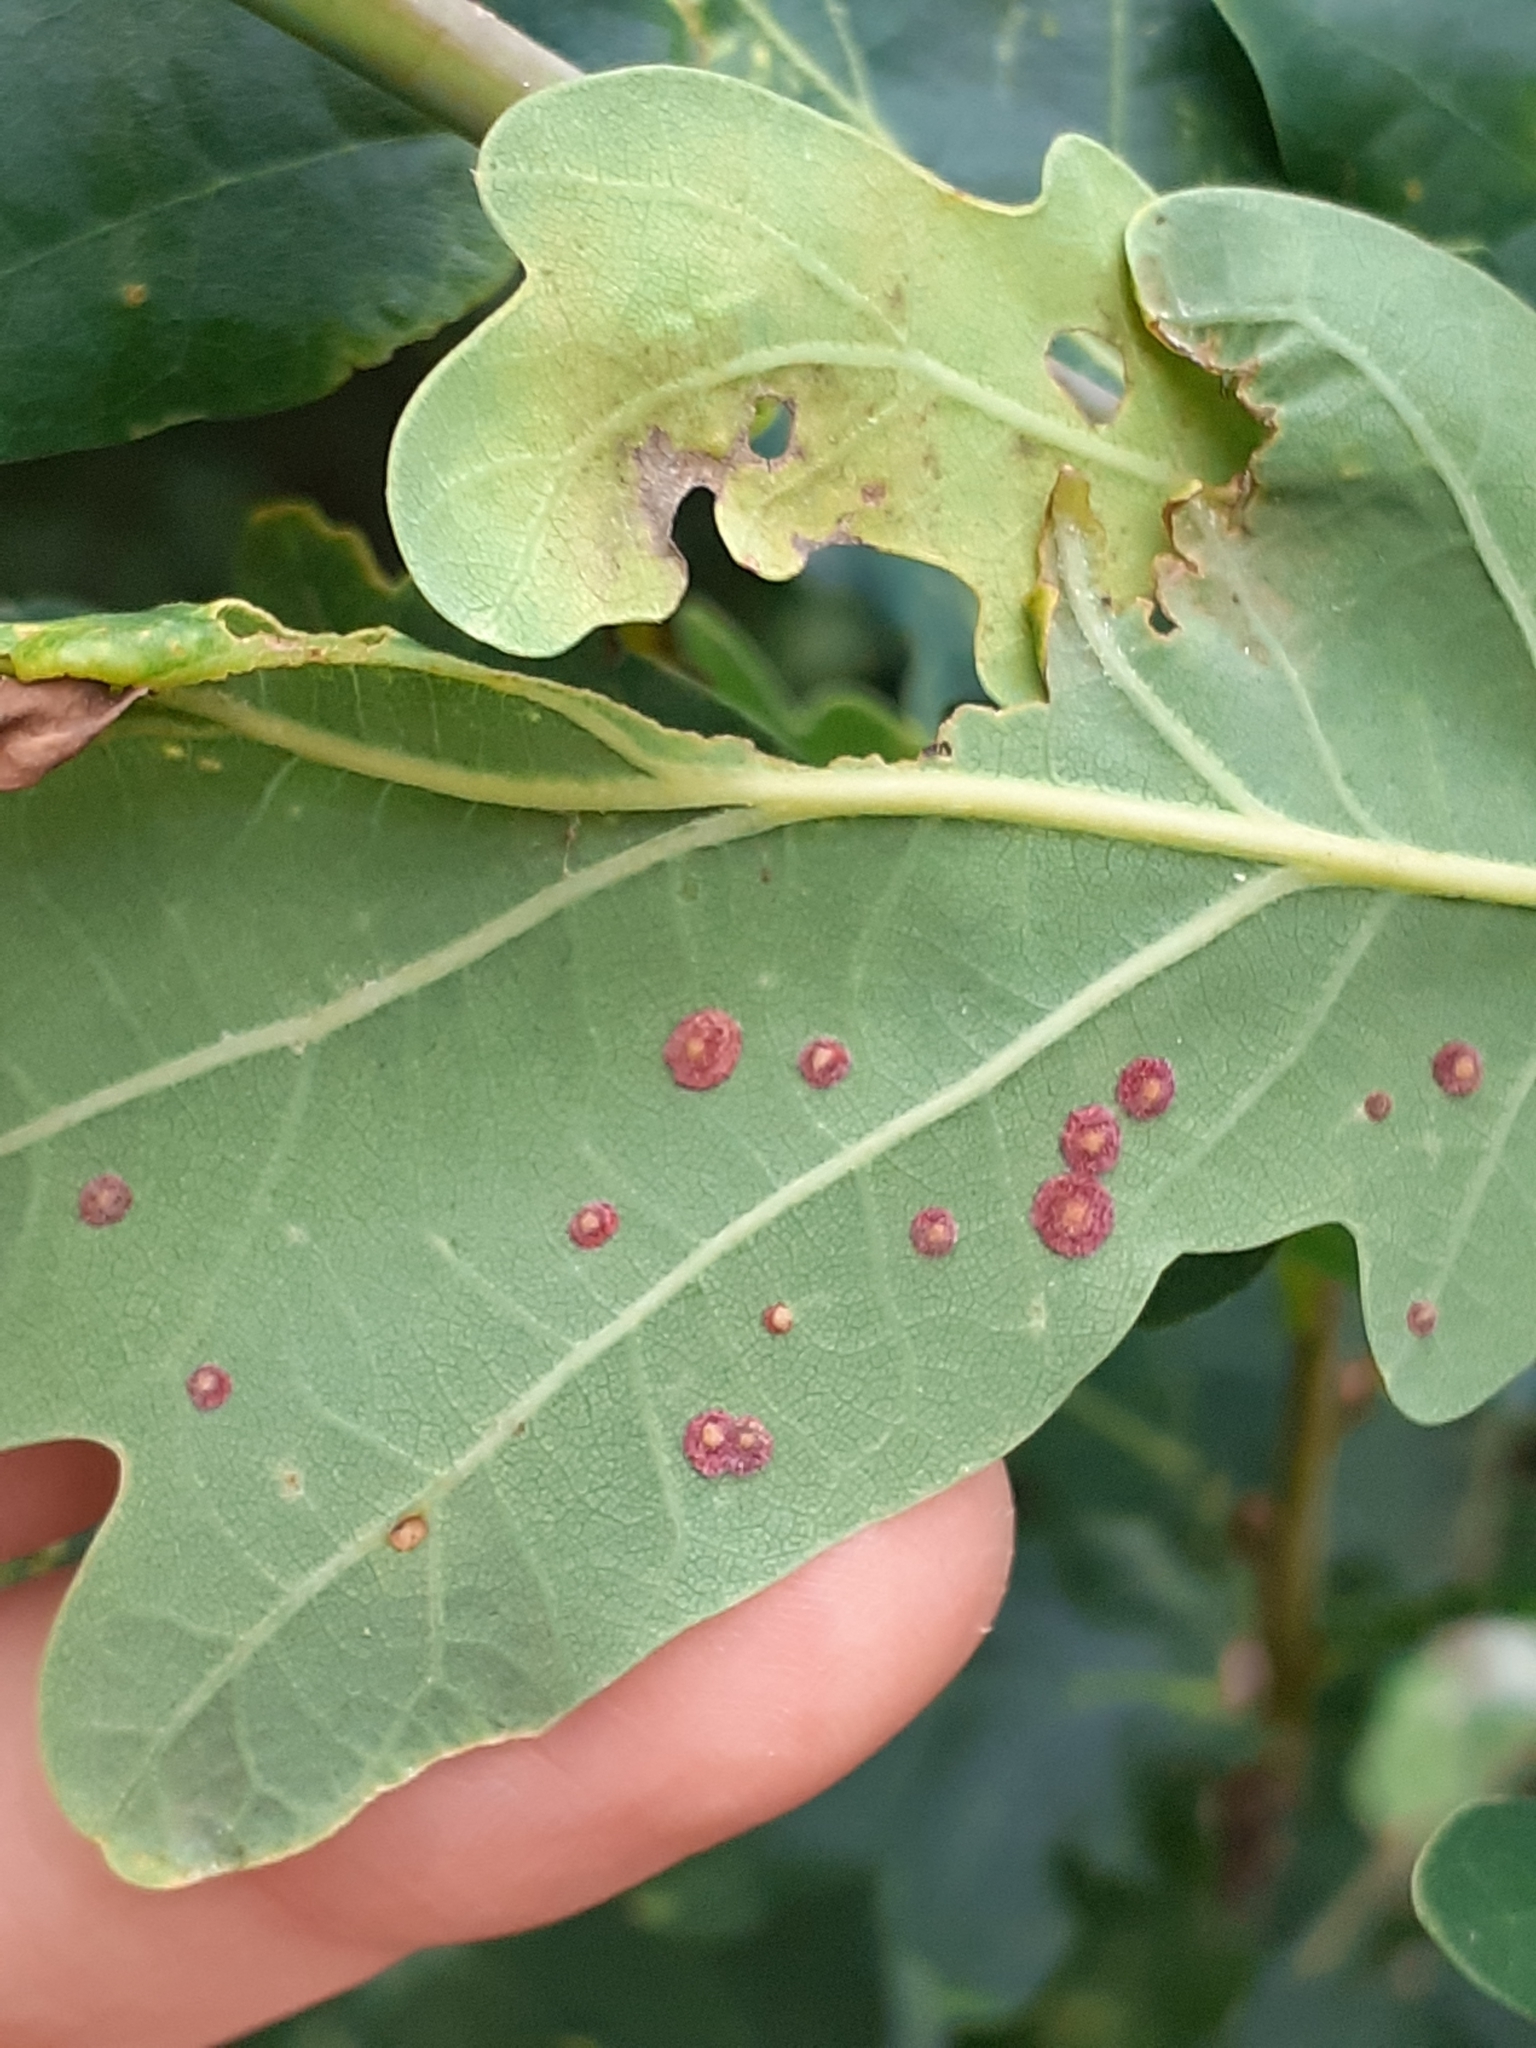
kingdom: Animalia
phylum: Arthropoda
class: Insecta
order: Hymenoptera
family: Cynipidae
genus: Neuroterus
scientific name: Neuroterus quercusbaccarum
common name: Common spangle gall
